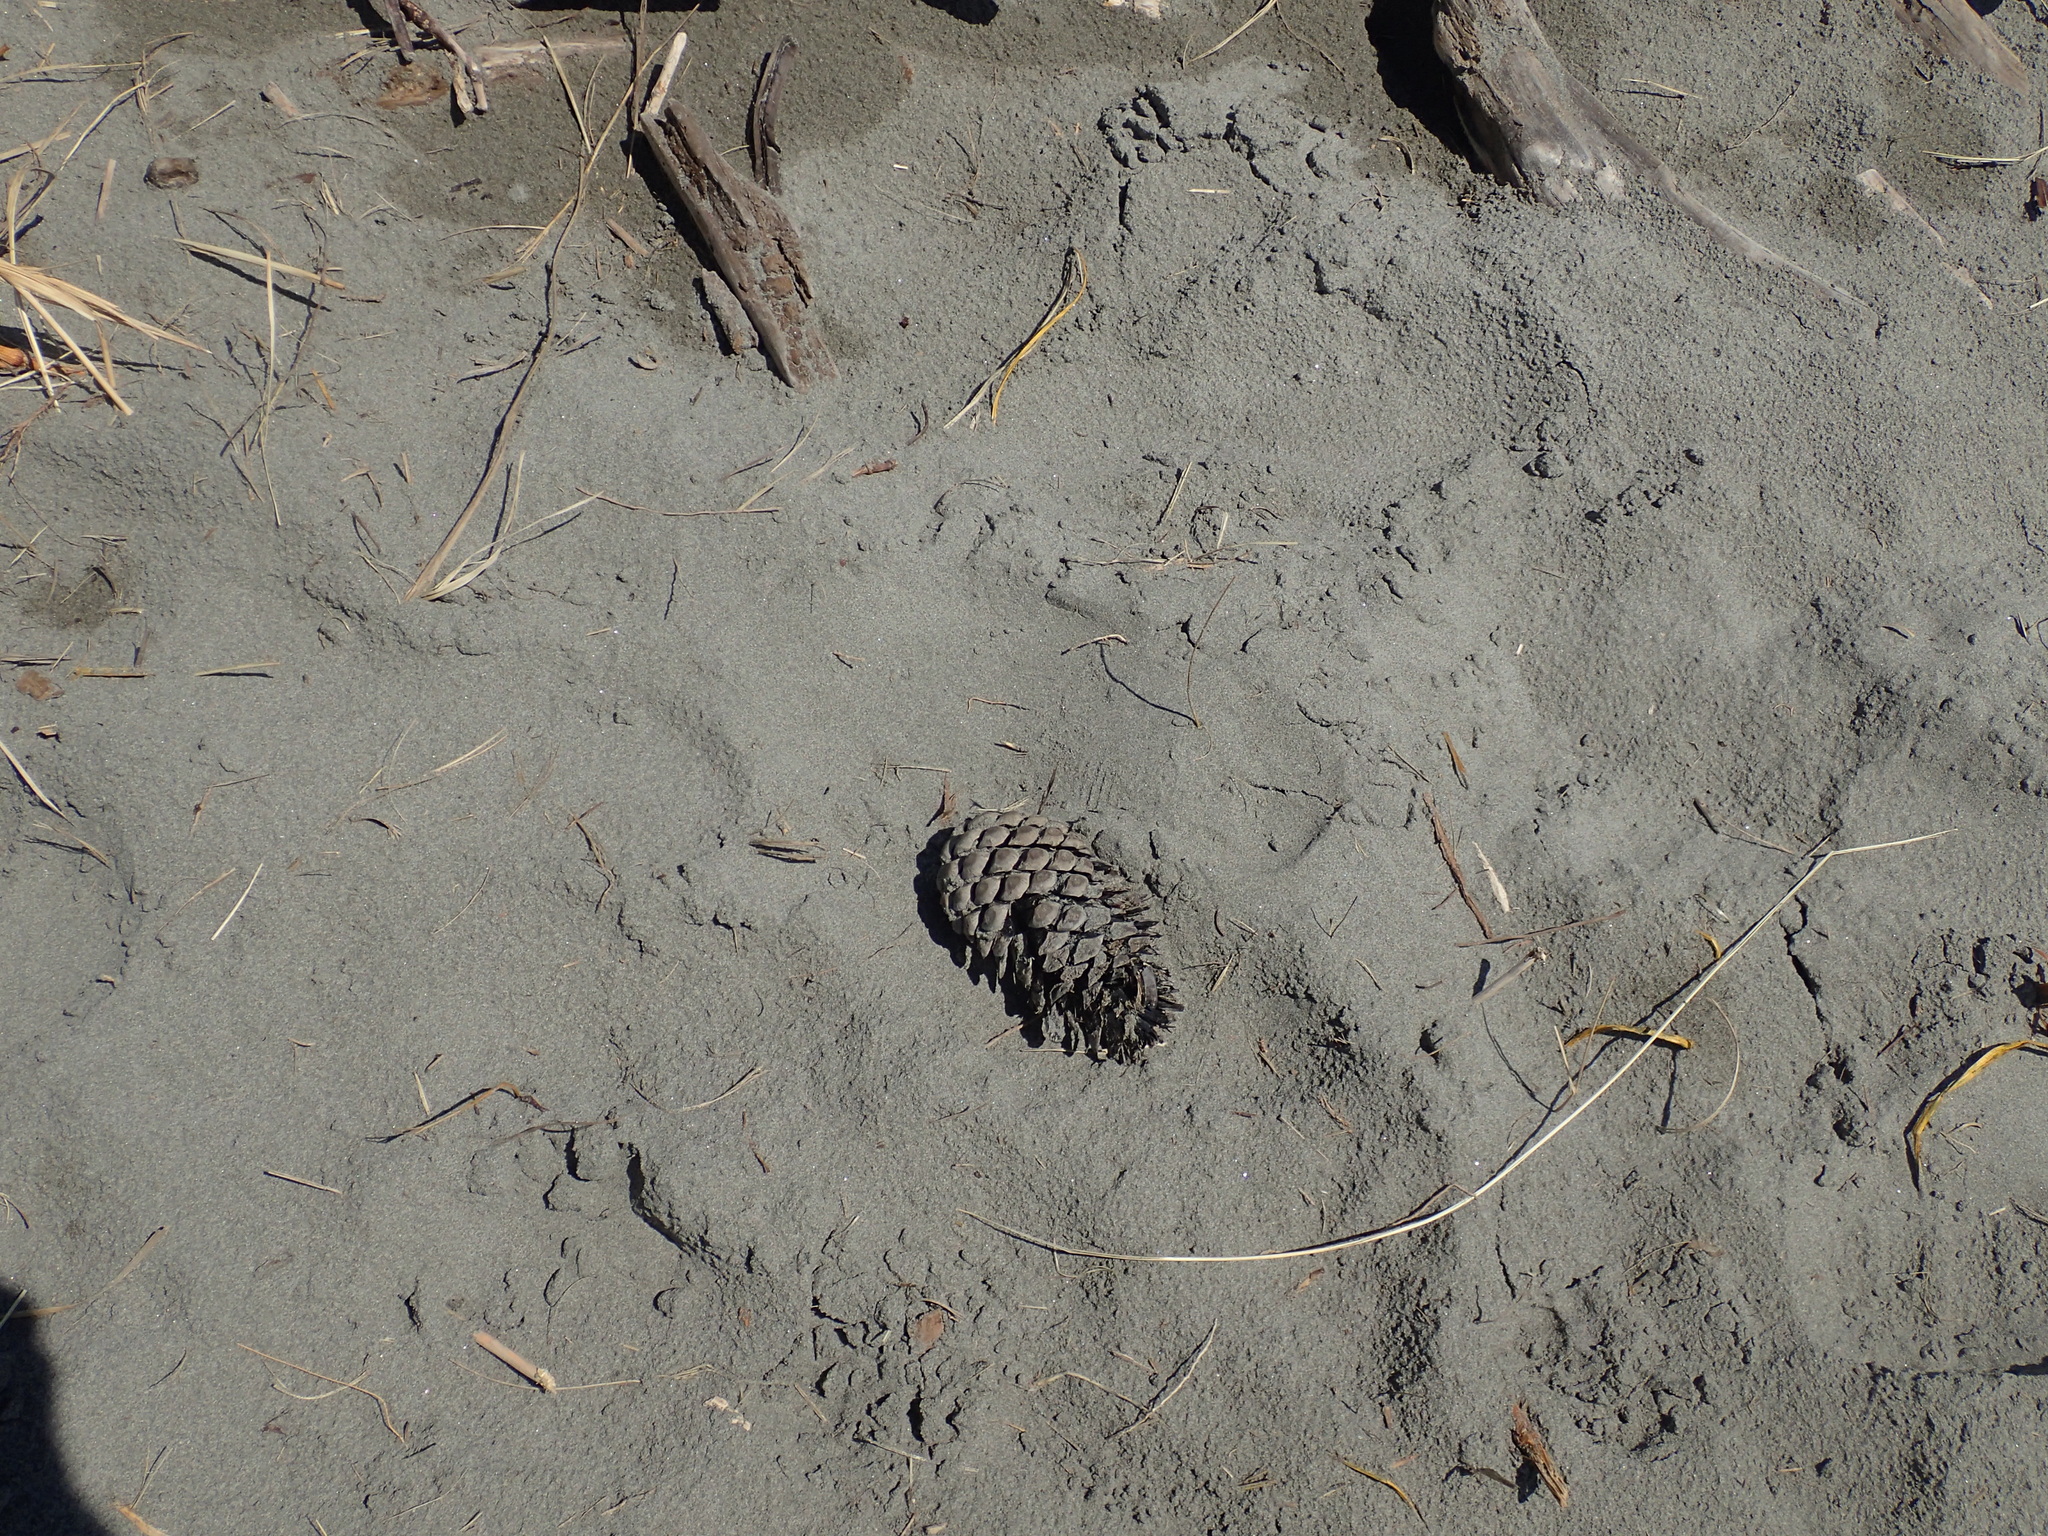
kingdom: Plantae
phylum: Tracheophyta
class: Pinopsida
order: Pinales
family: Pinaceae
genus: Pinus
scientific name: Pinus radiata
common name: Monterey pine
